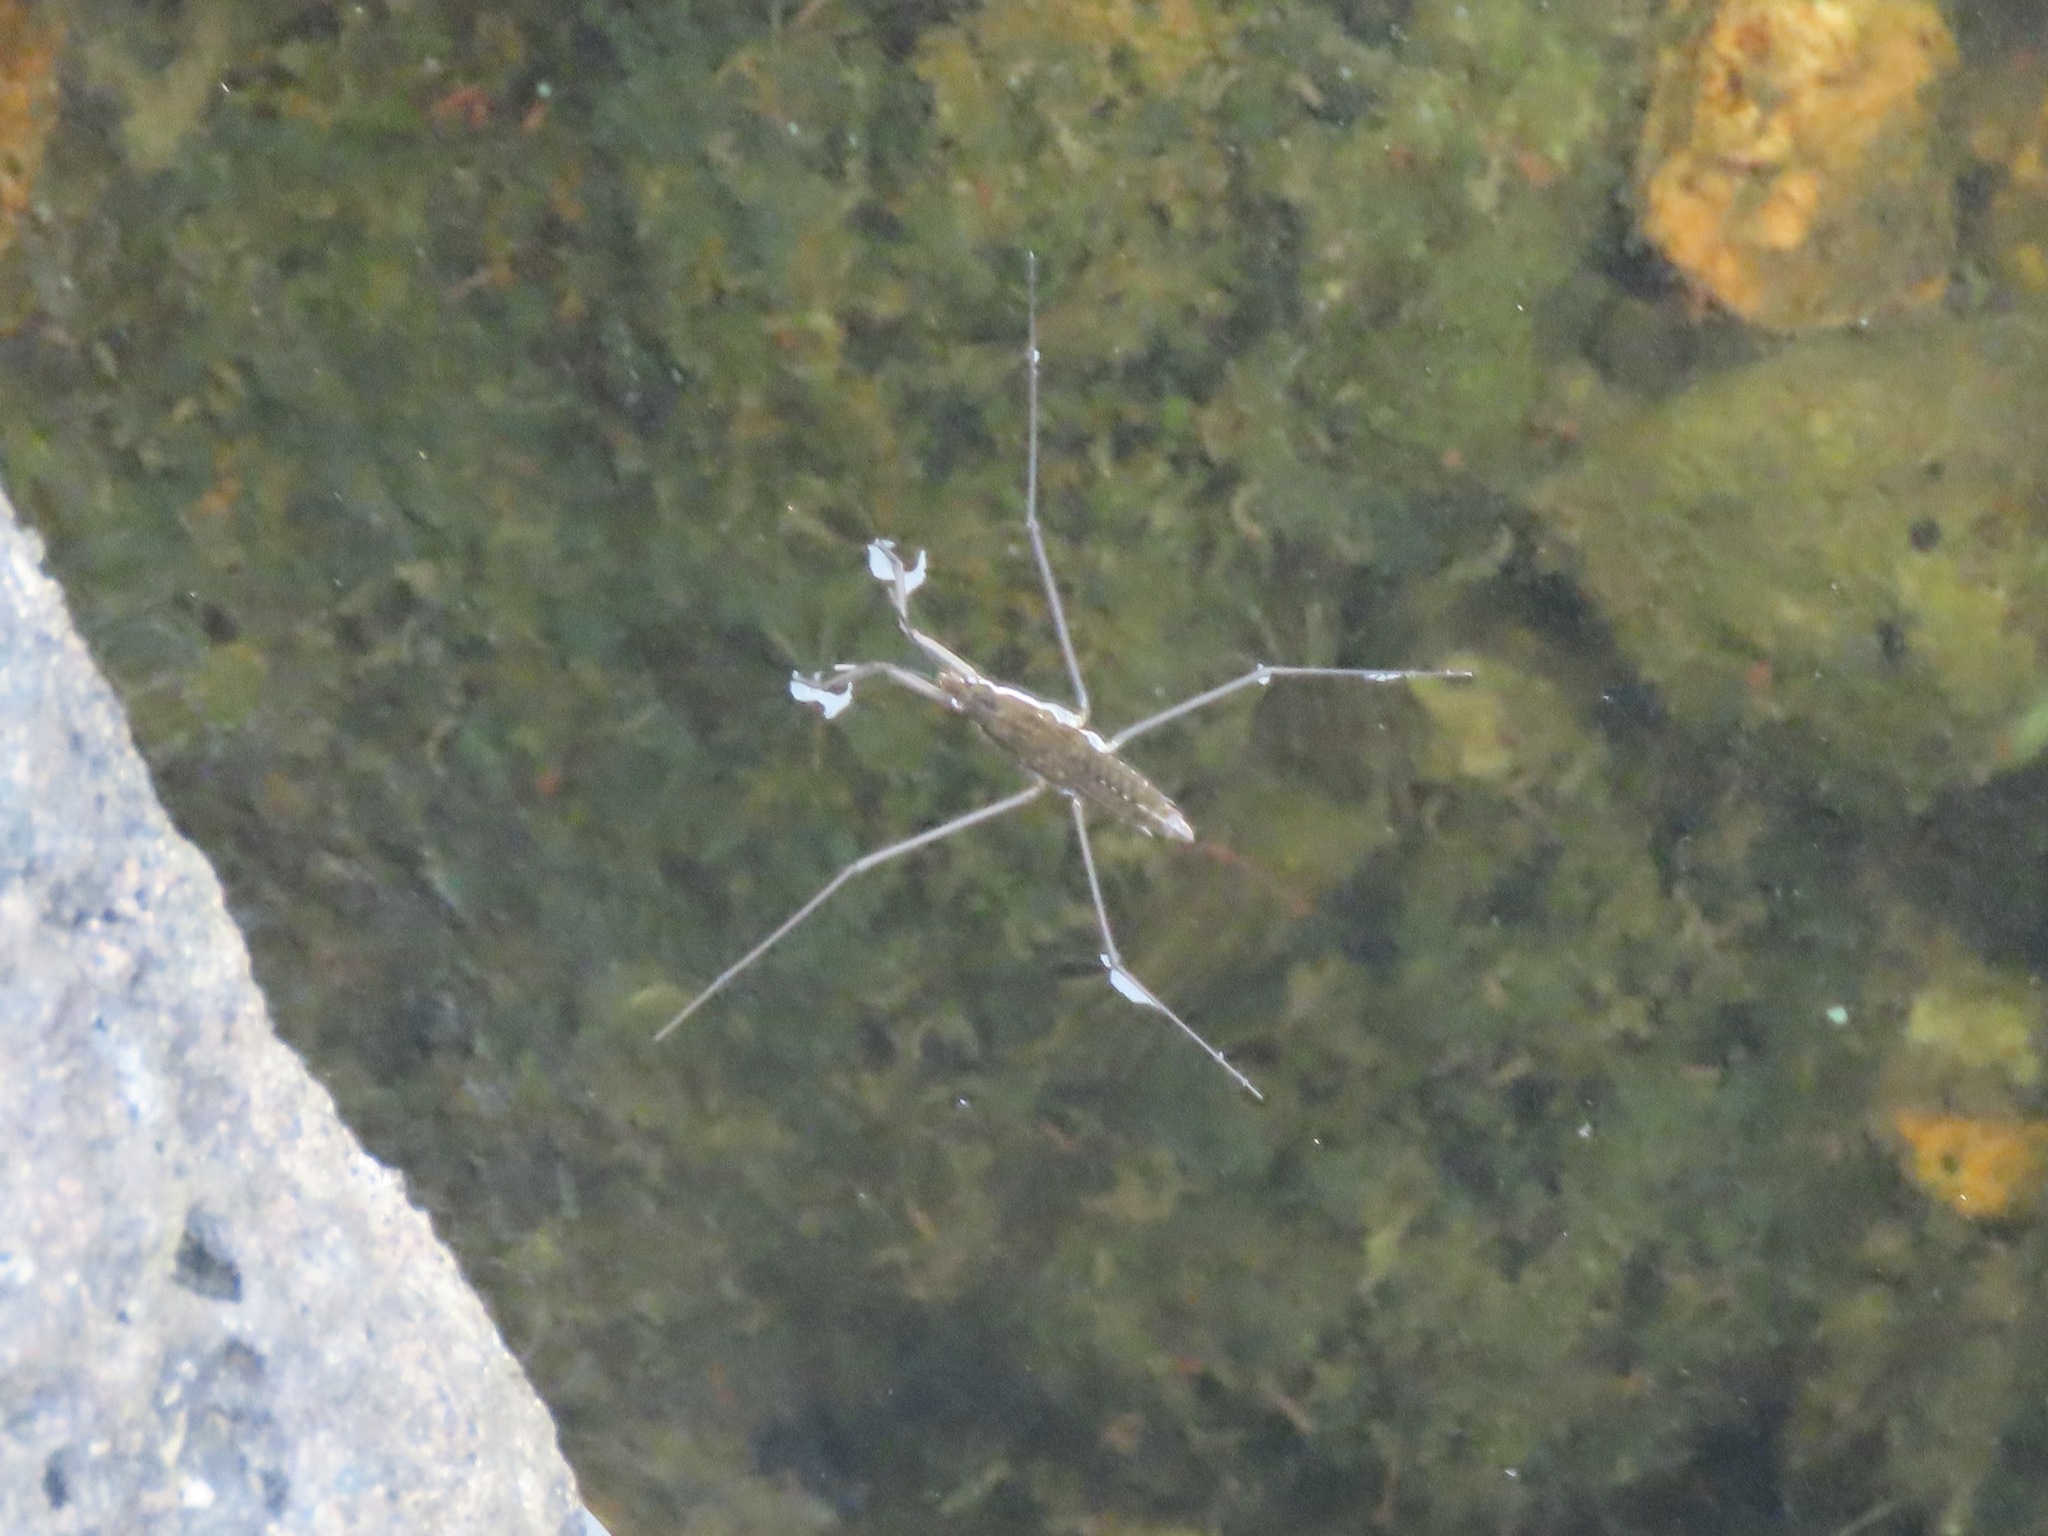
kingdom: Animalia
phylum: Arthropoda
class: Insecta
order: Hemiptera
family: Gerridae
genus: Aquarius
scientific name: Aquarius remigis
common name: Common water strider
